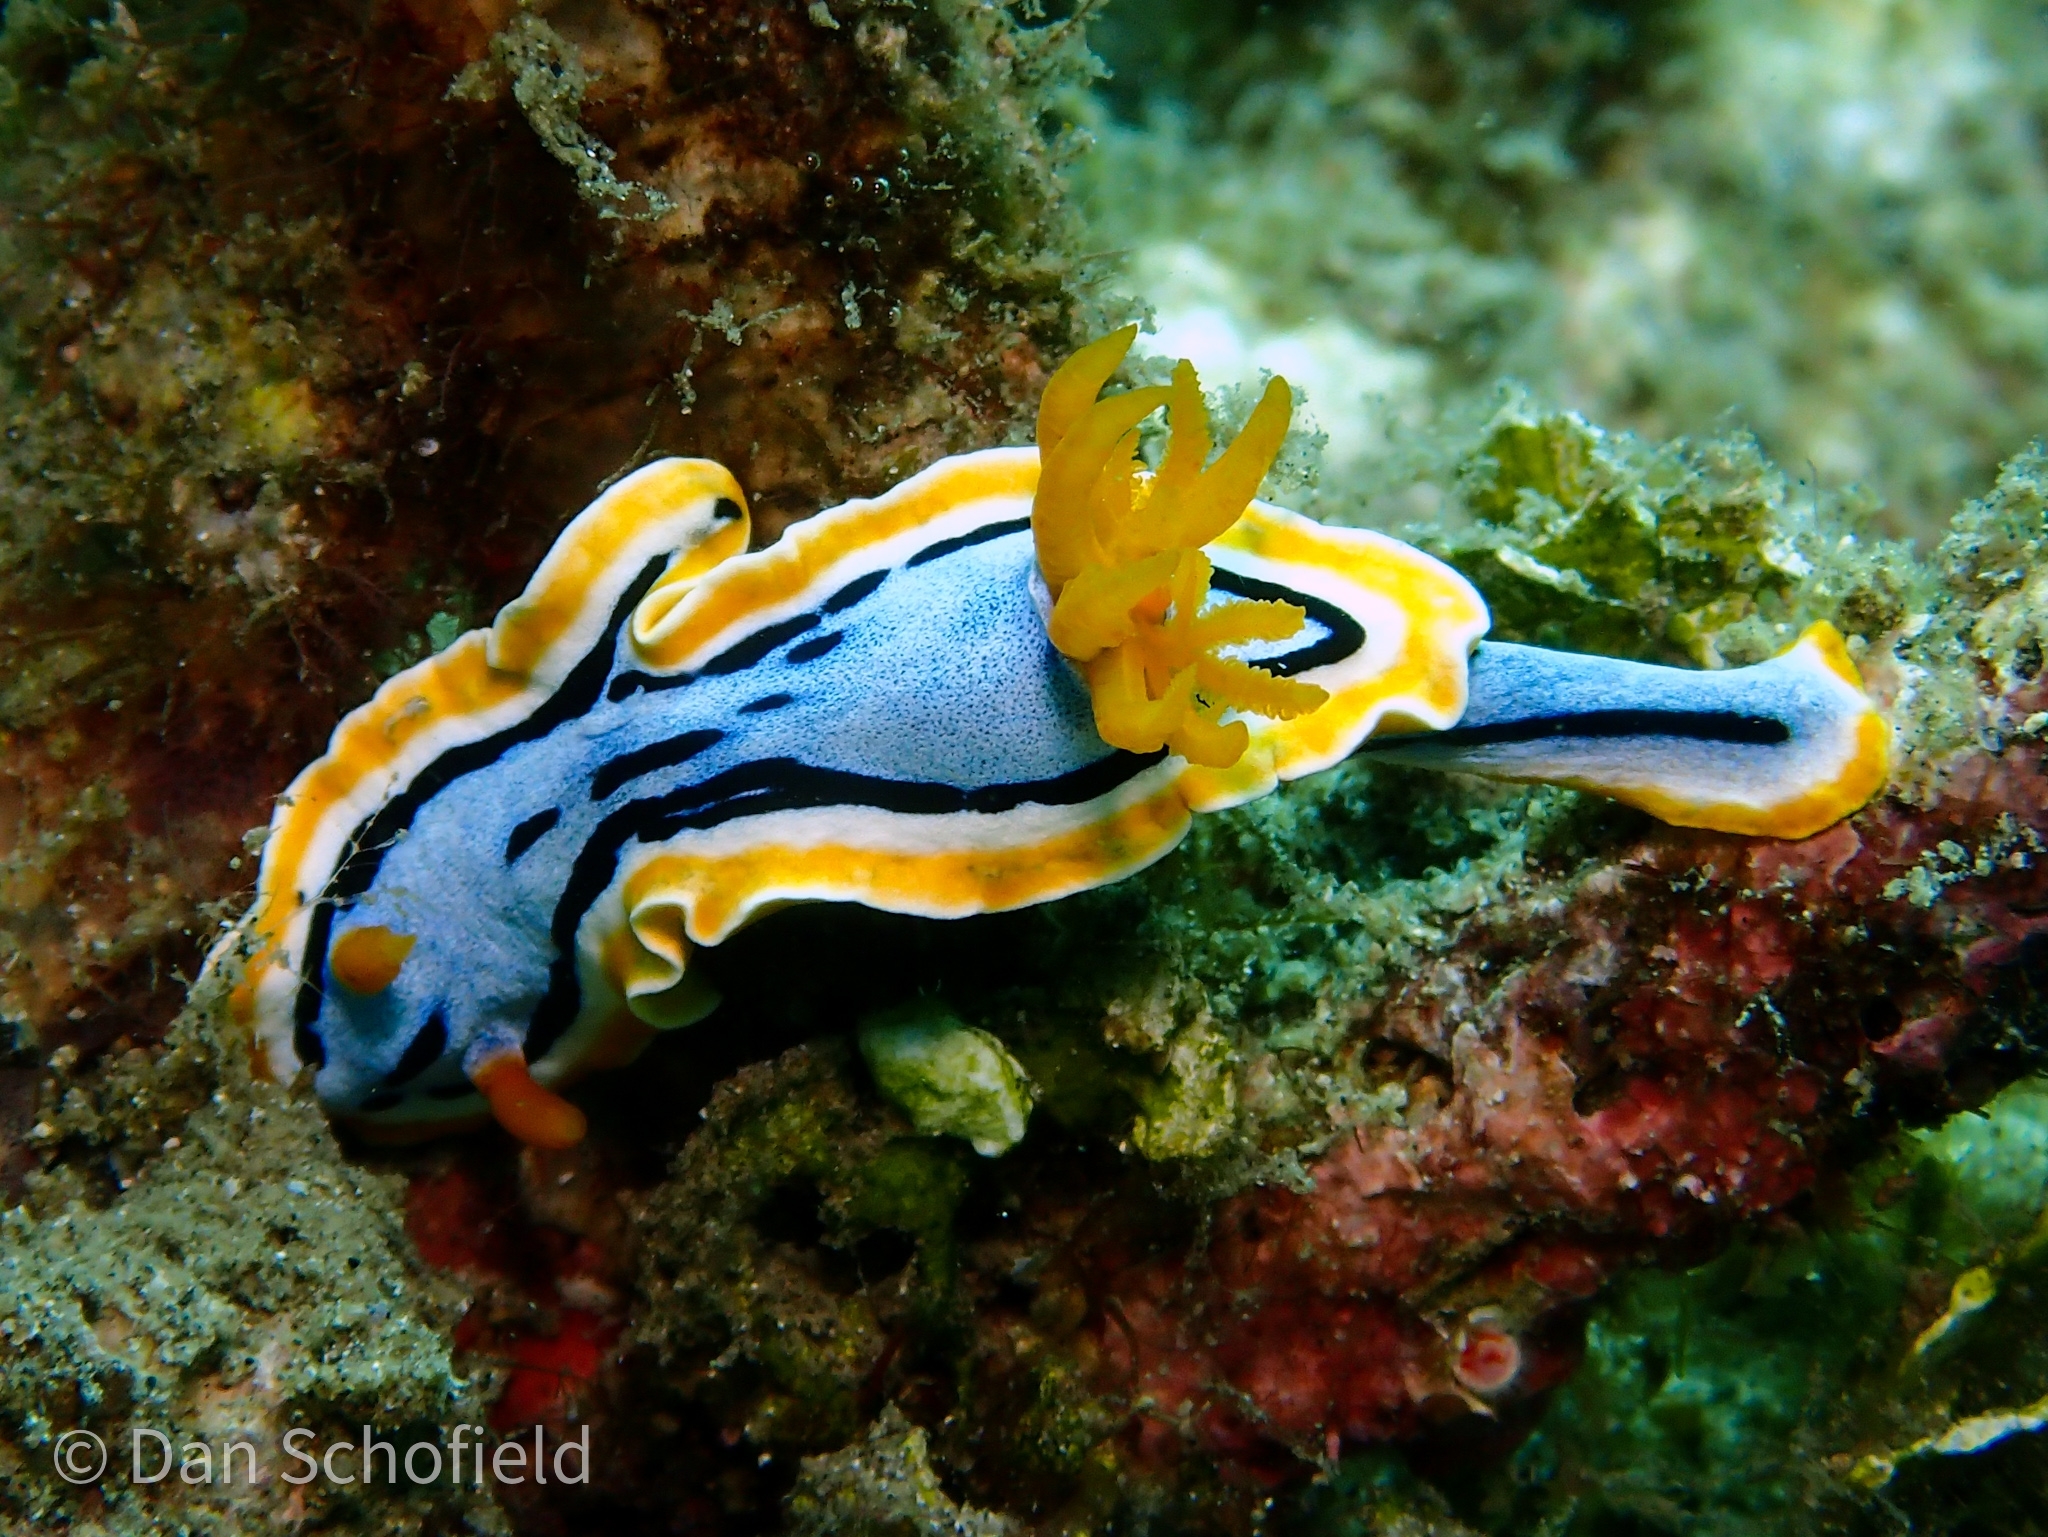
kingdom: Animalia
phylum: Mollusca
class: Gastropoda
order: Nudibranchia
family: Chromodorididae
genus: Chromodoris
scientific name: Chromodoris annae
